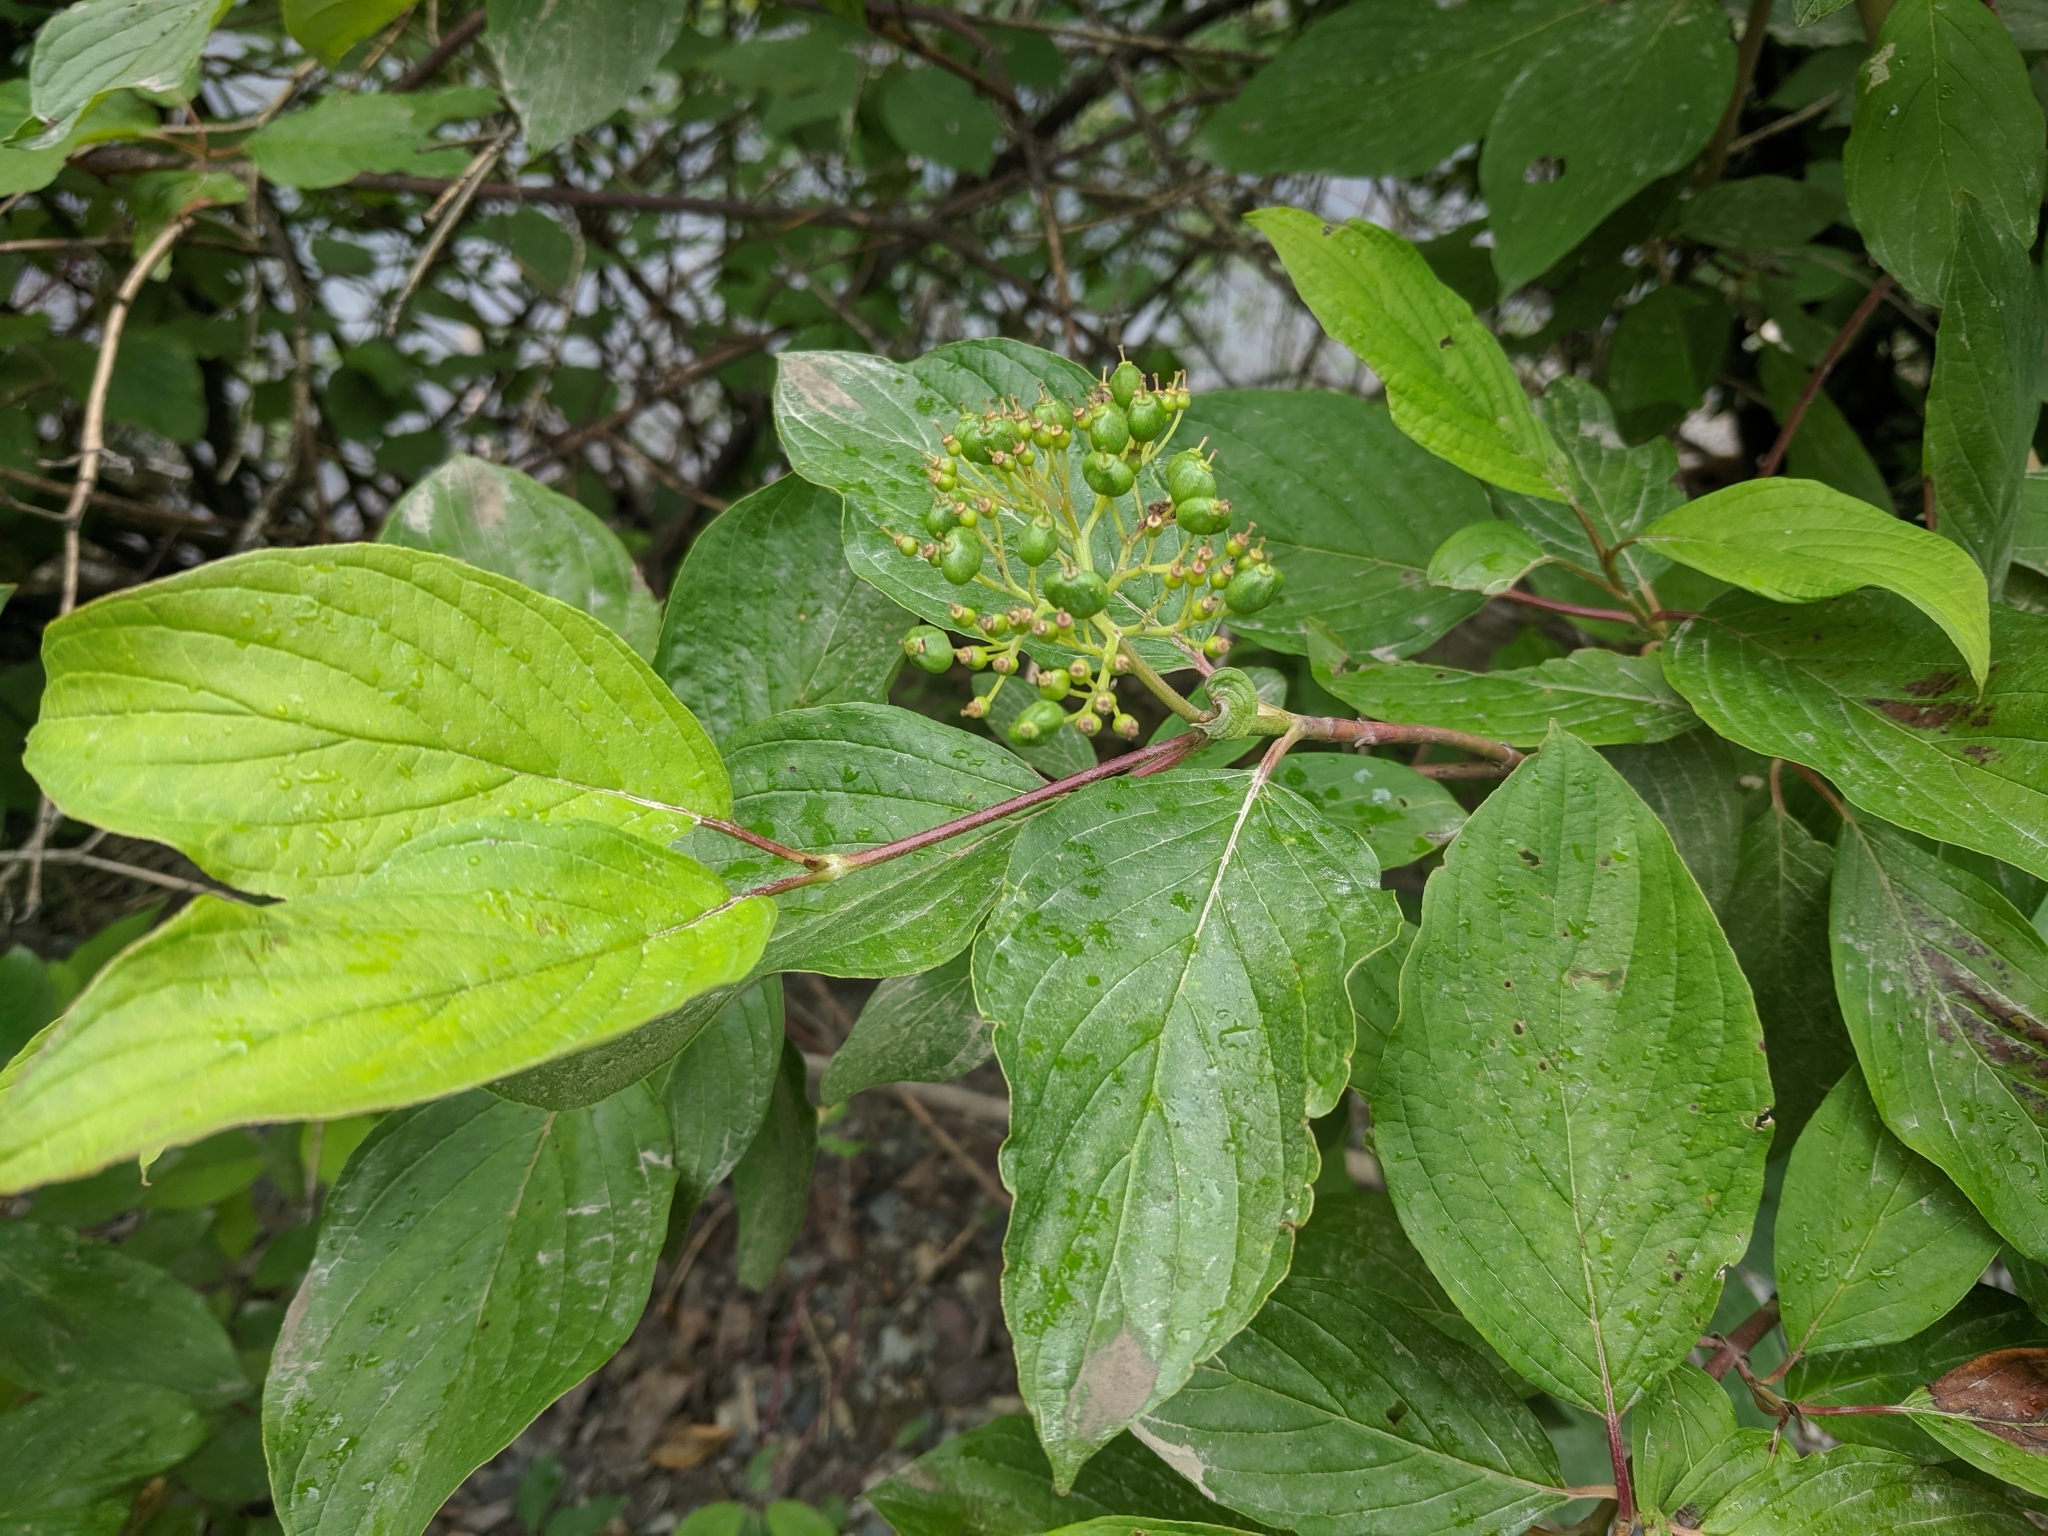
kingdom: Plantae
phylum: Tracheophyta
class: Magnoliopsida
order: Cornales
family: Cornaceae
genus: Cornus
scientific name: Cornus sericea
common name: Red-osier dogwood
